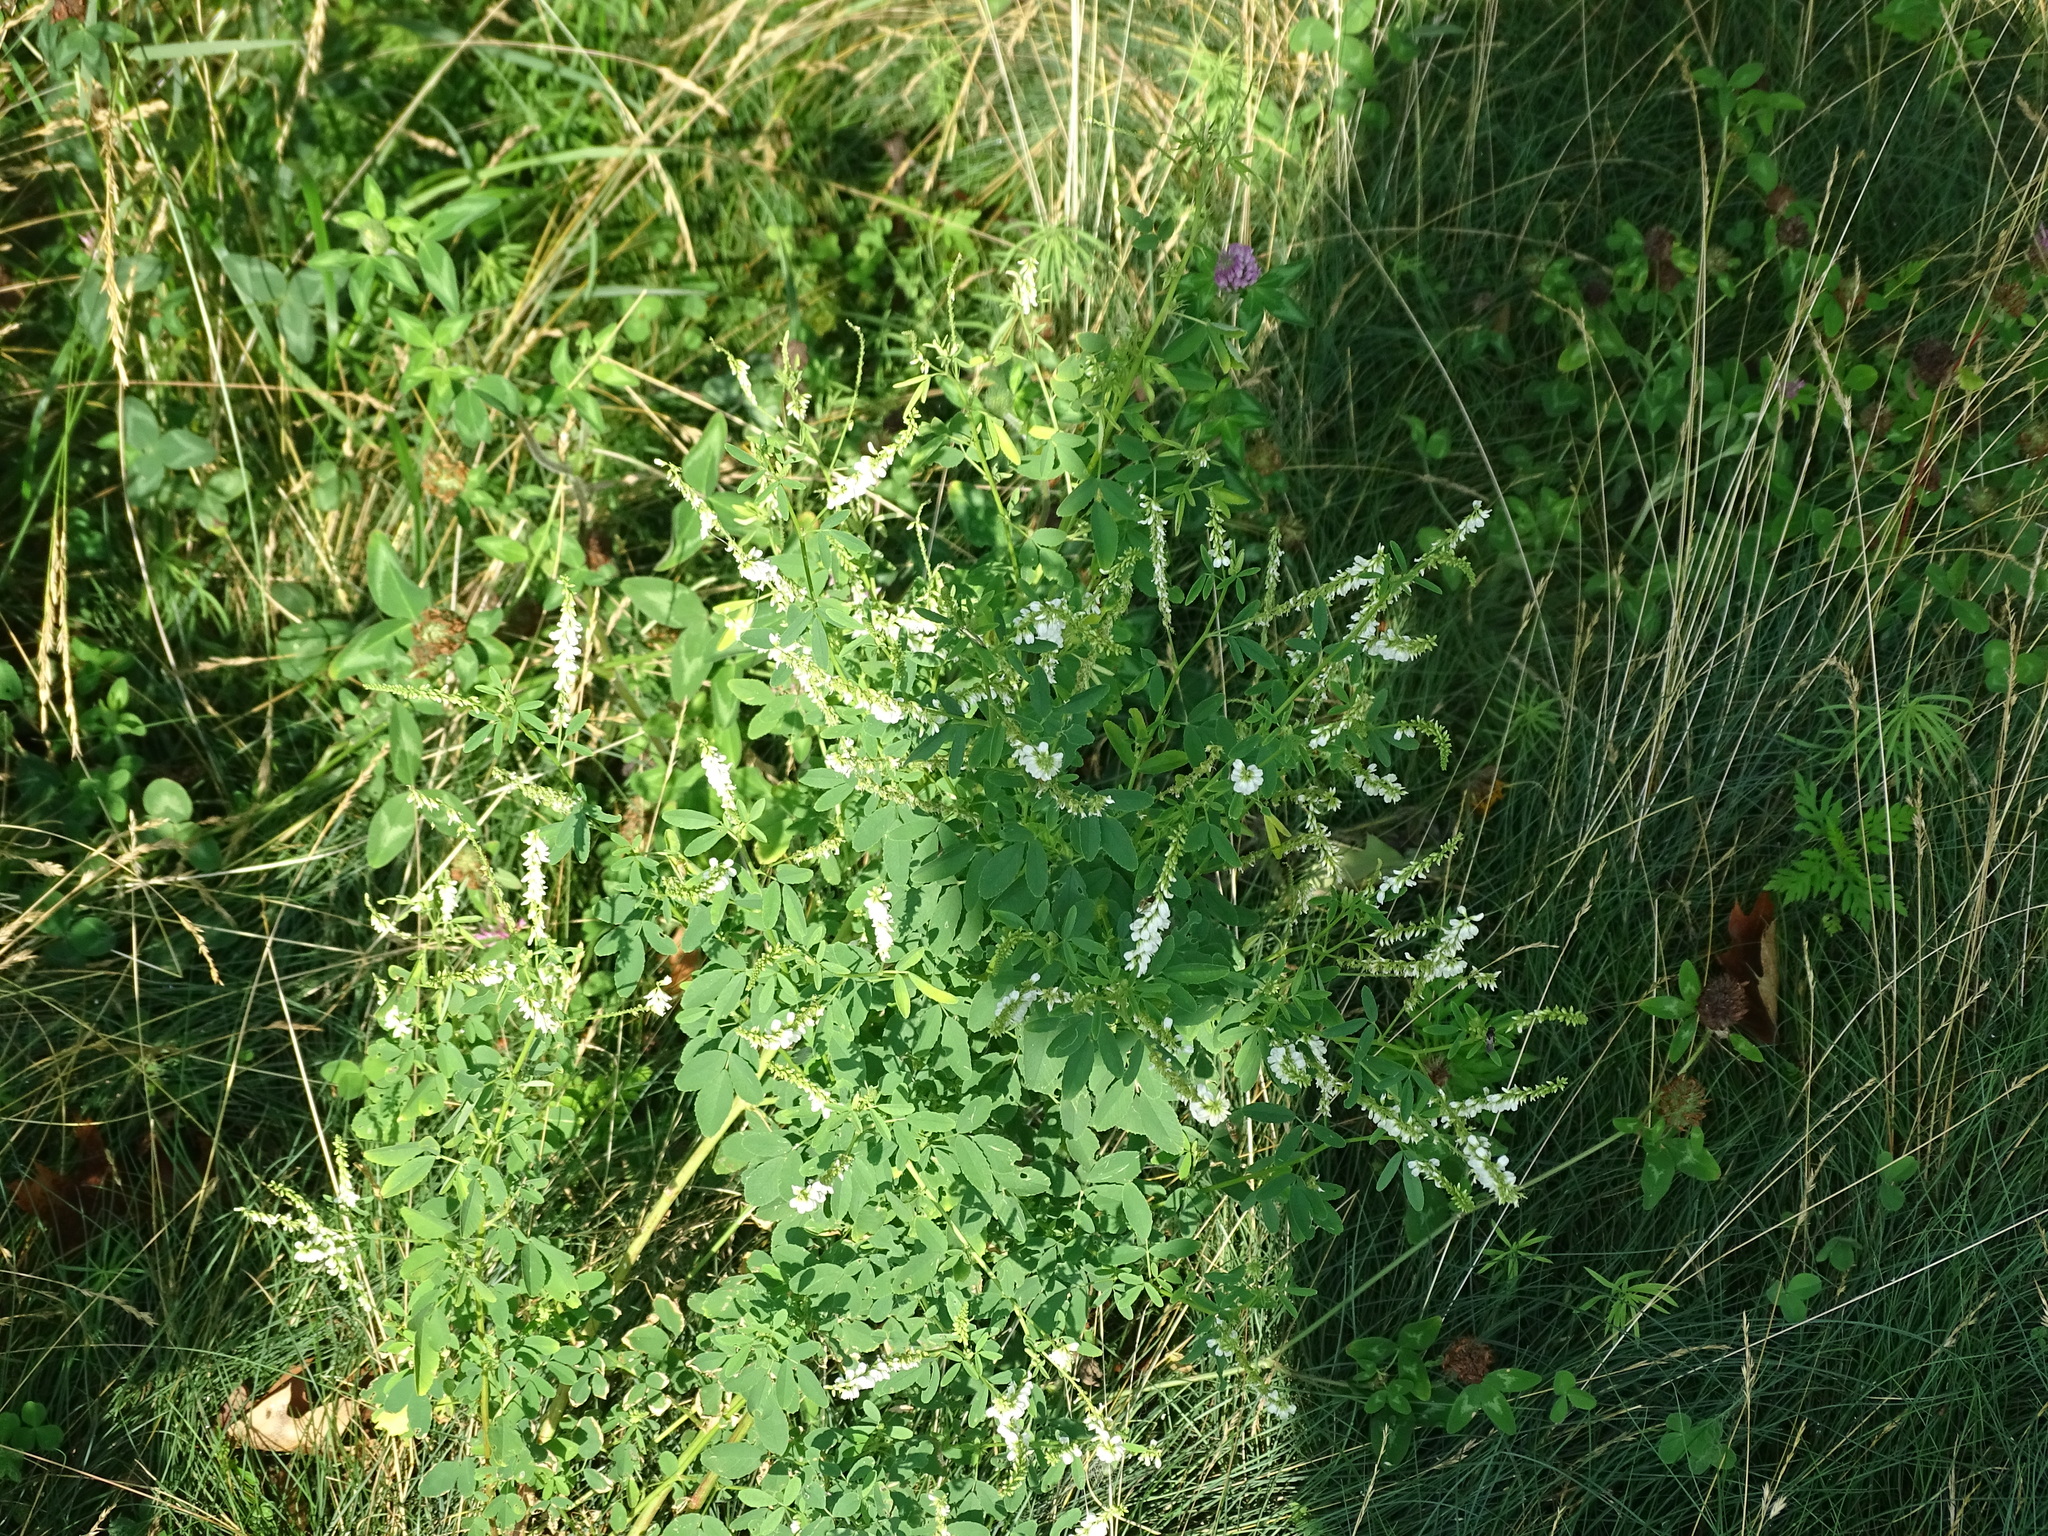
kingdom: Plantae
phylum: Tracheophyta
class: Magnoliopsida
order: Fabales
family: Fabaceae
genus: Melilotus
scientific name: Melilotus albus
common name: White melilot
